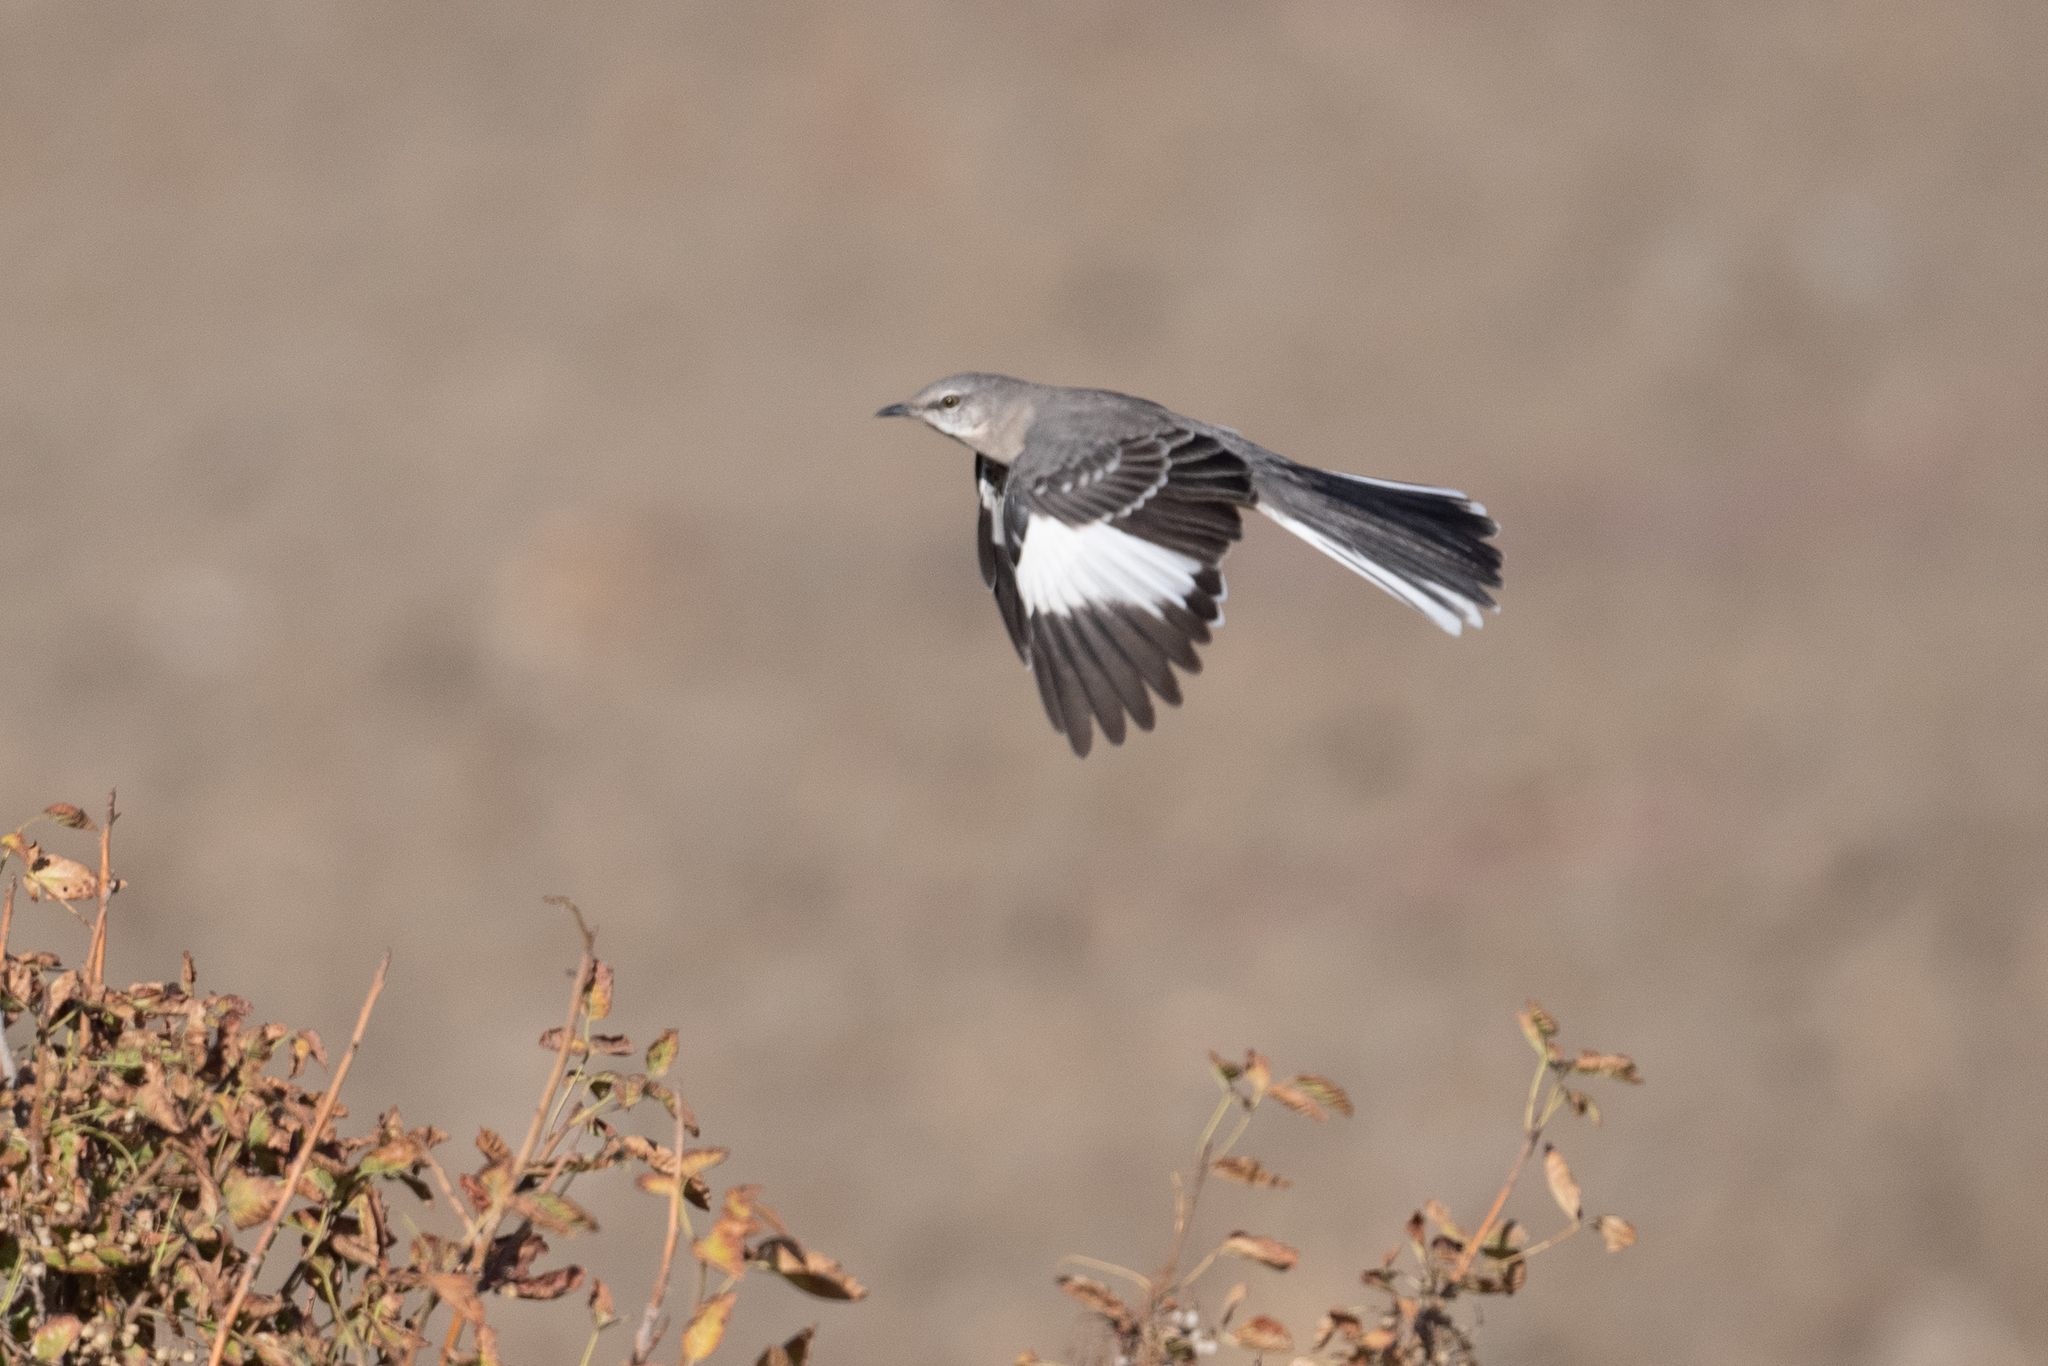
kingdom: Animalia
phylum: Chordata
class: Aves
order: Passeriformes
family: Mimidae
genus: Mimus
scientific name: Mimus polyglottos
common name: Northern mockingbird
